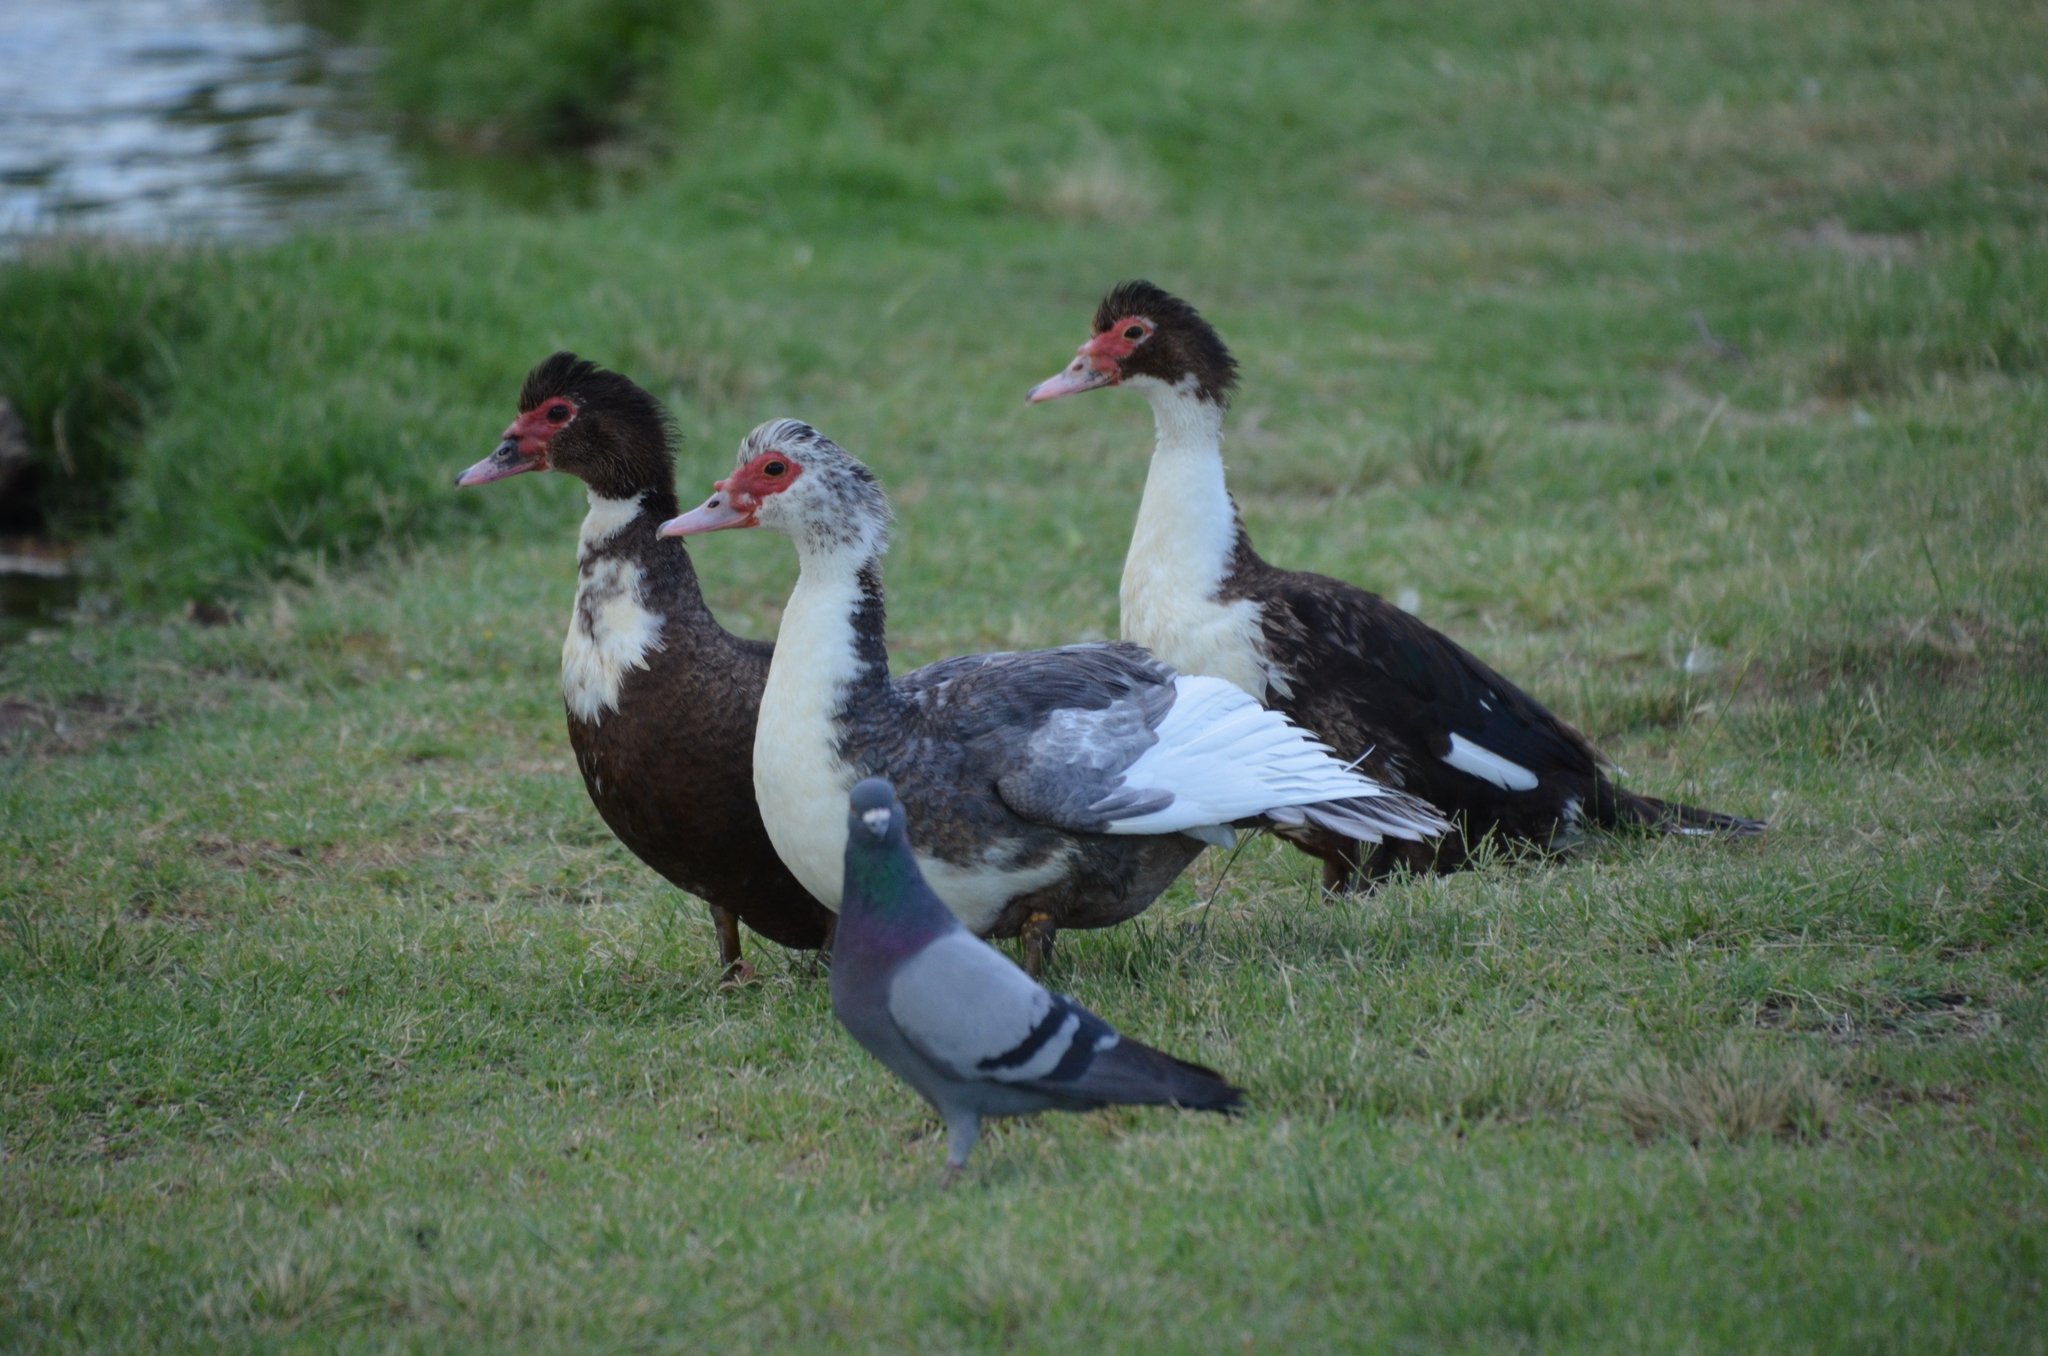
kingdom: Animalia
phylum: Chordata
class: Aves
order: Anseriformes
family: Anatidae
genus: Cairina
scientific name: Cairina moschata
